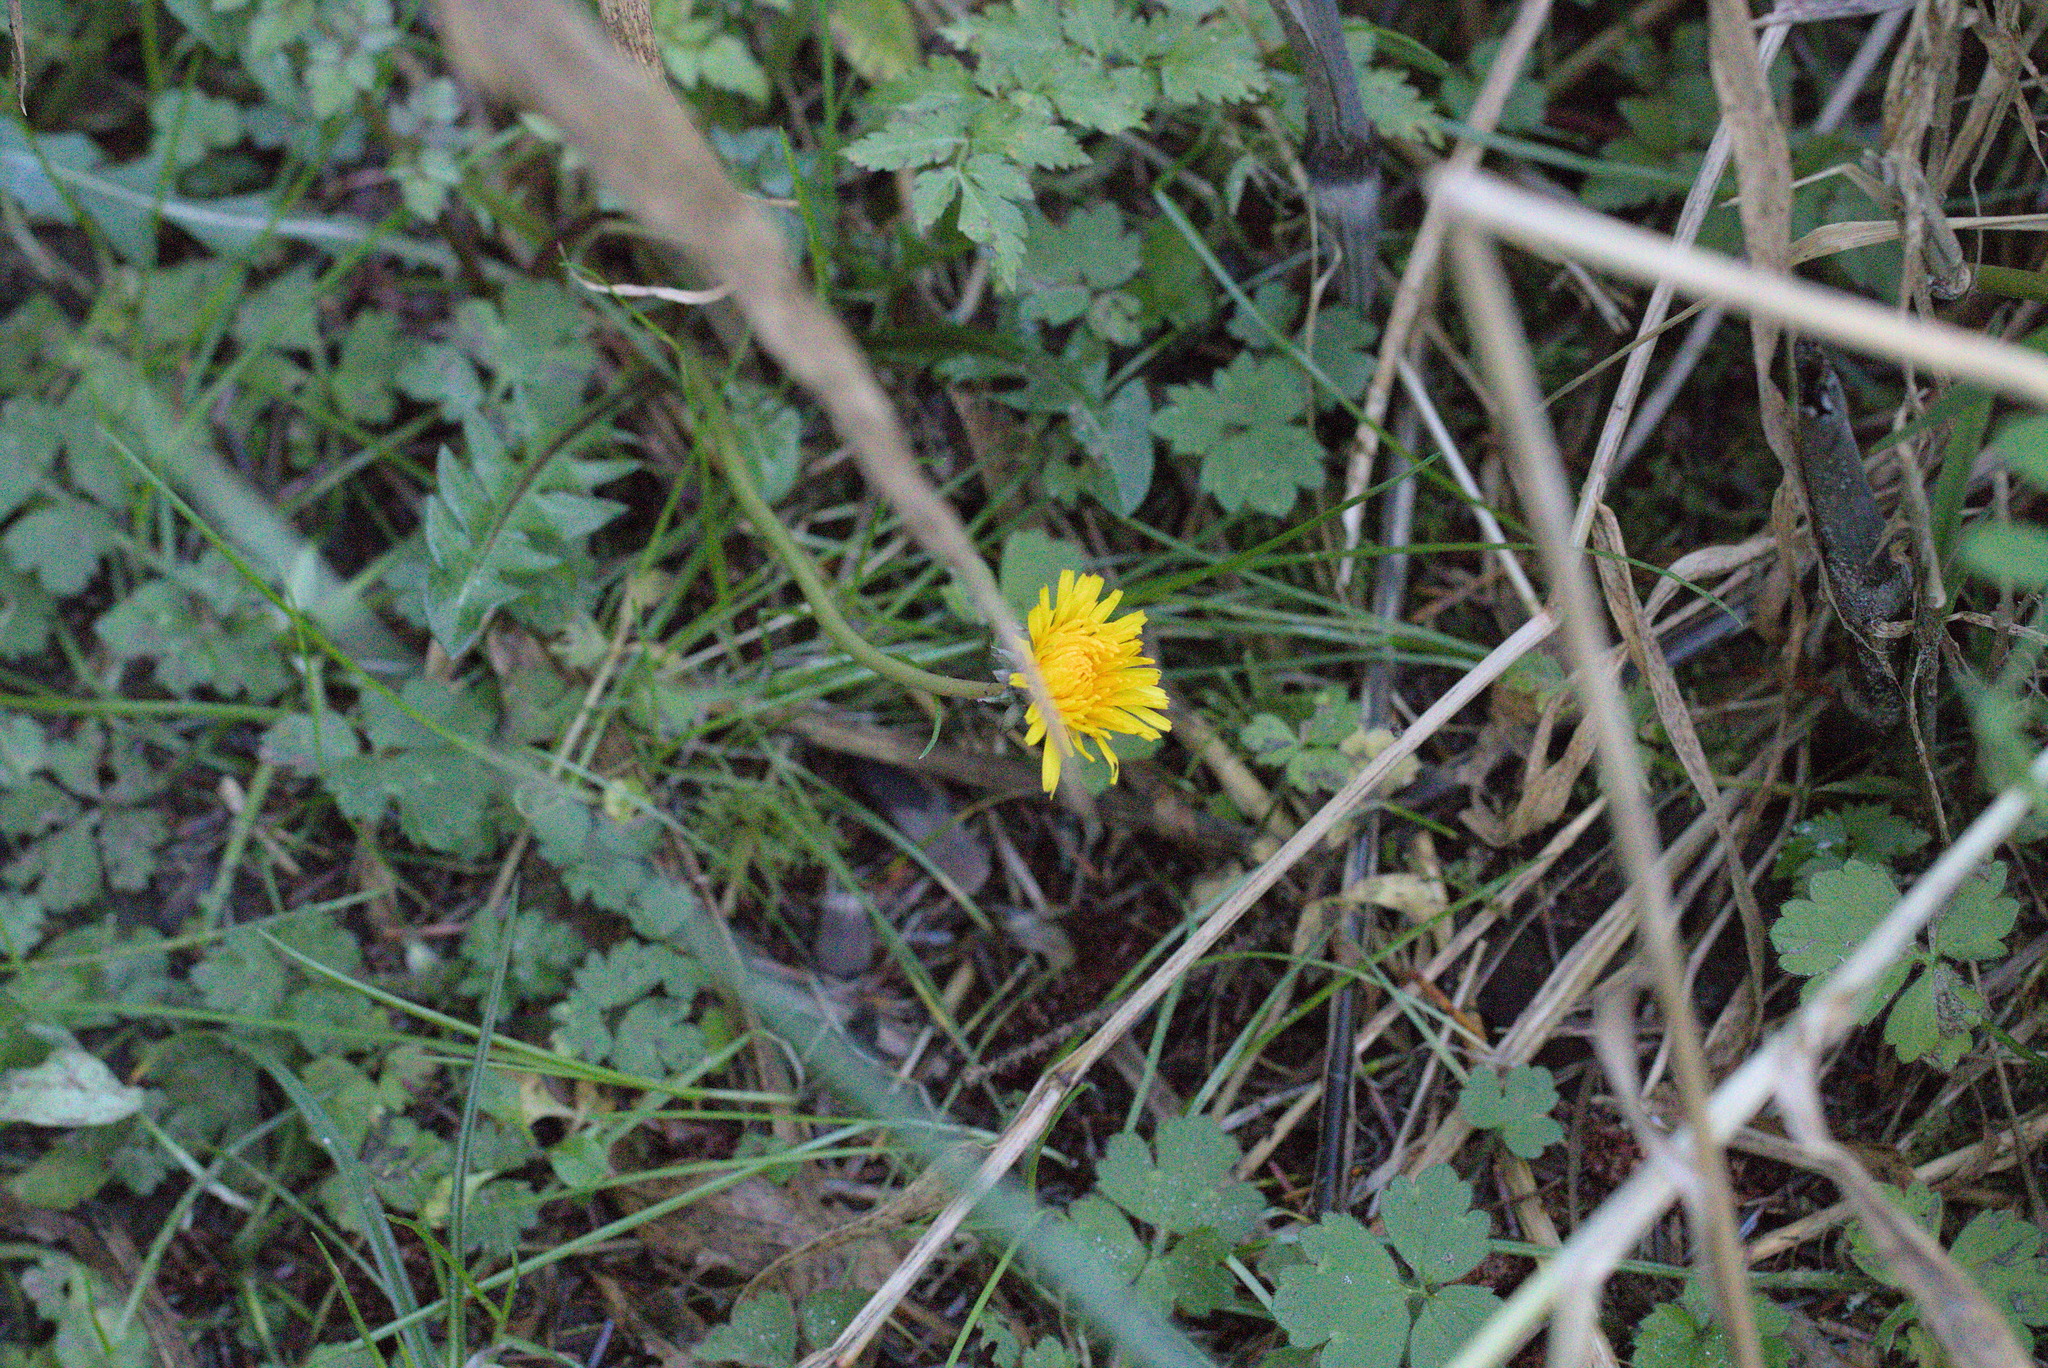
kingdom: Plantae
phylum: Tracheophyta
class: Magnoliopsida
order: Asterales
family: Asteraceae
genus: Taraxacum
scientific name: Taraxacum officinale
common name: Common dandelion
